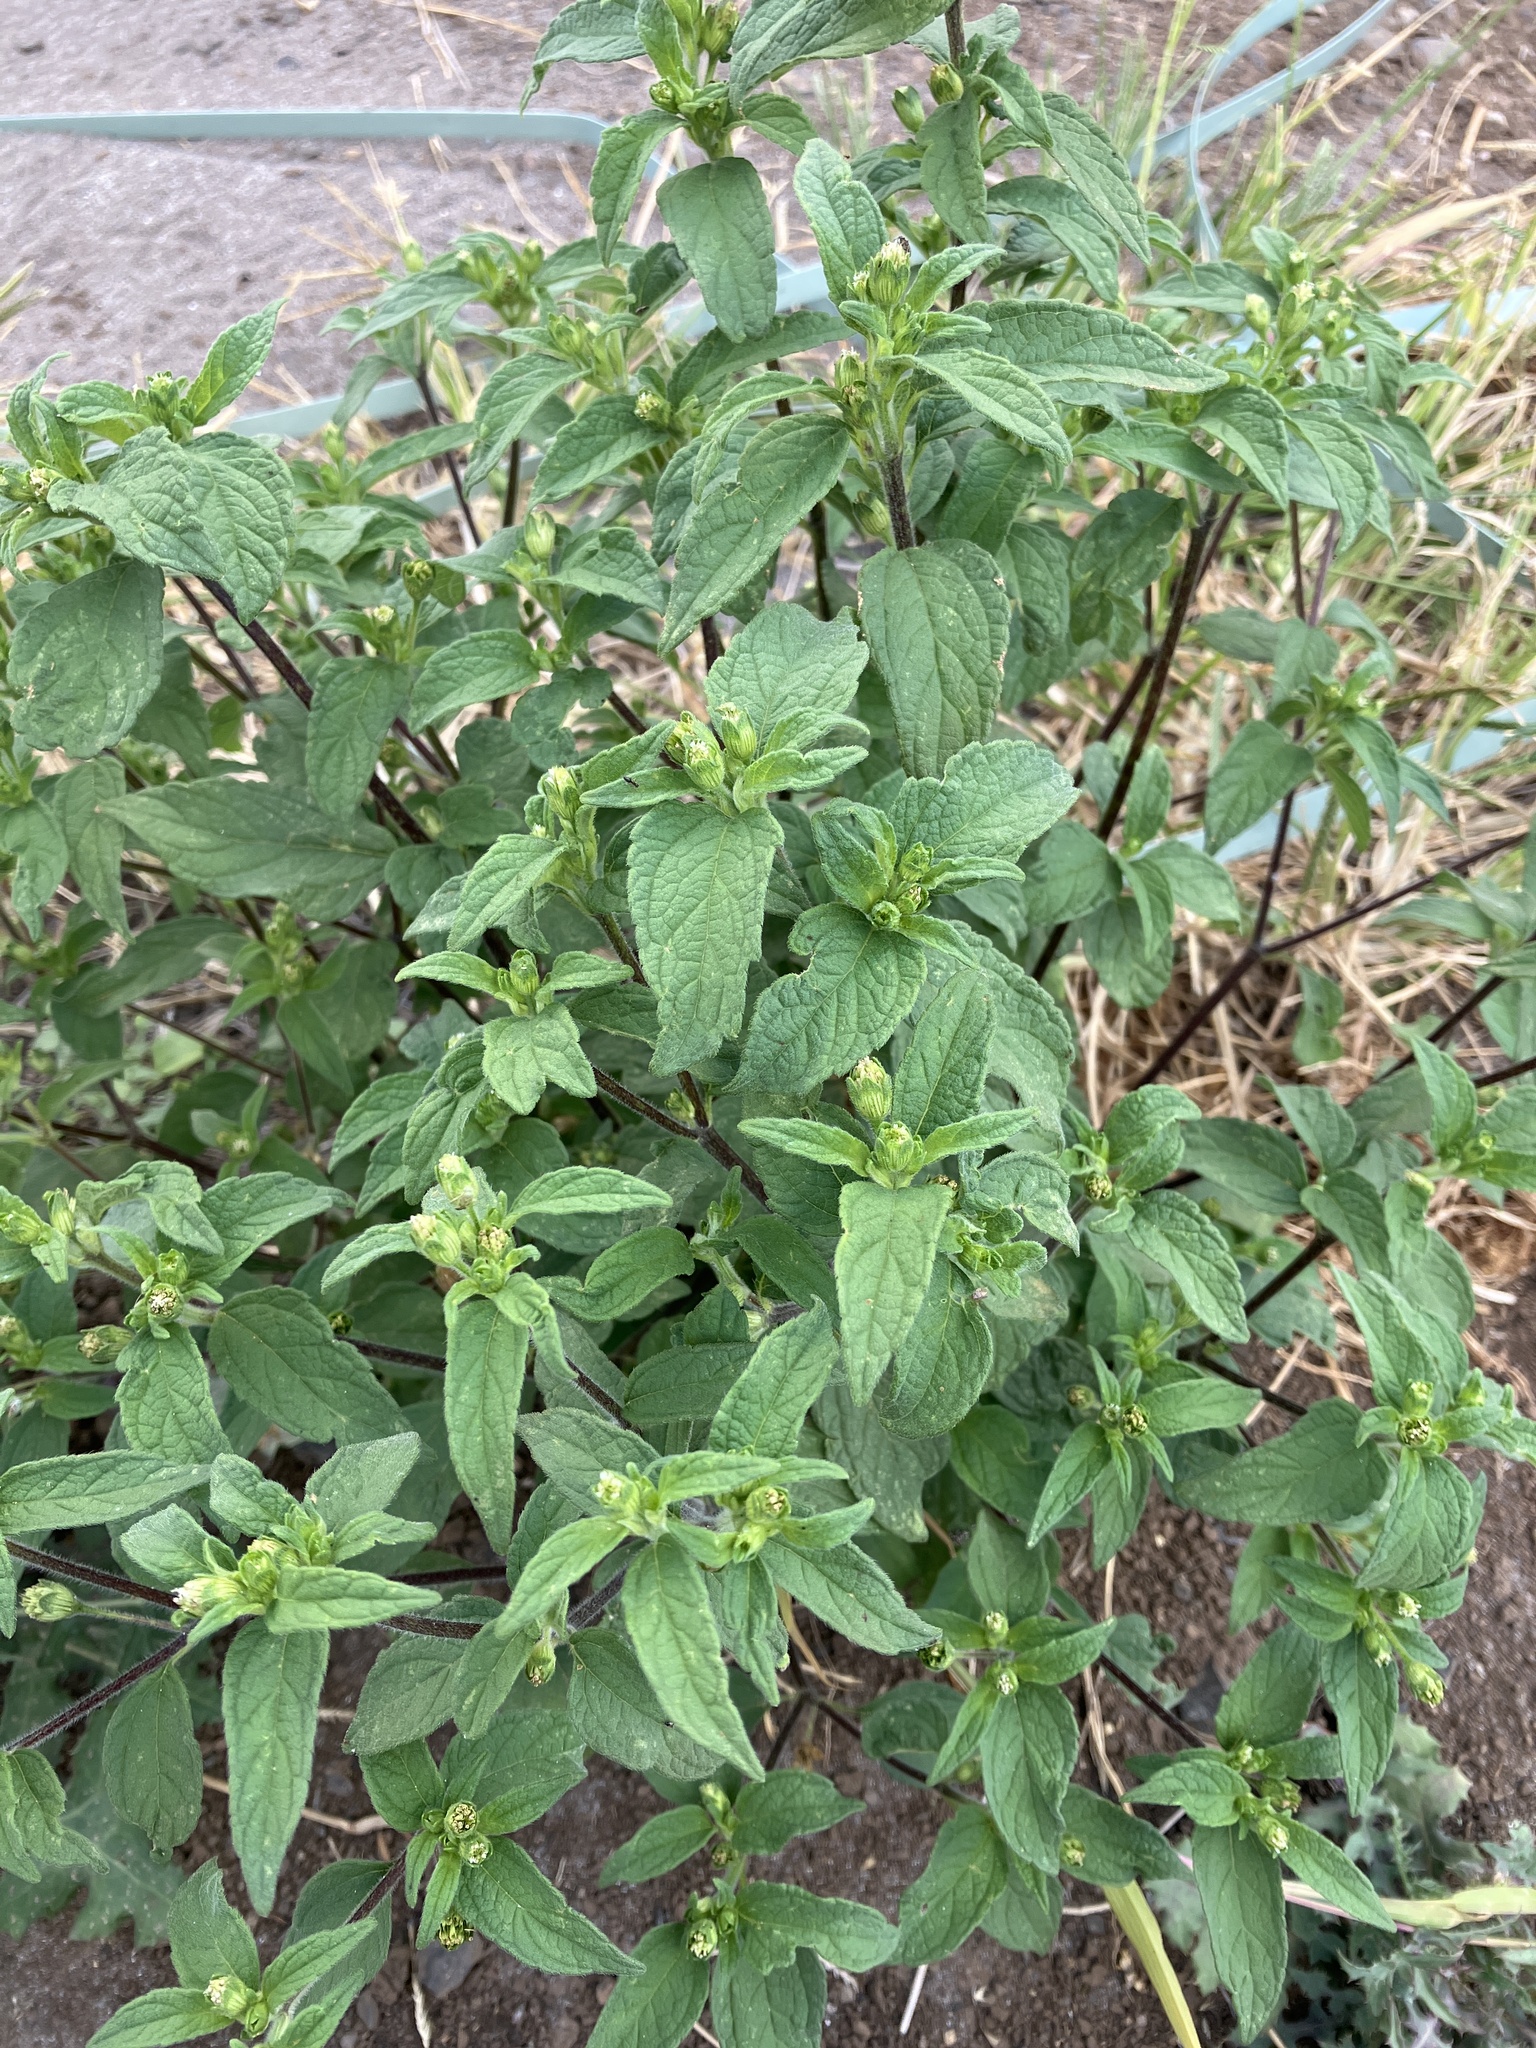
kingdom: Plantae
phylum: Tracheophyta
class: Magnoliopsida
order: Asterales
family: Asteraceae
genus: Blainvillea
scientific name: Blainvillea acmella
